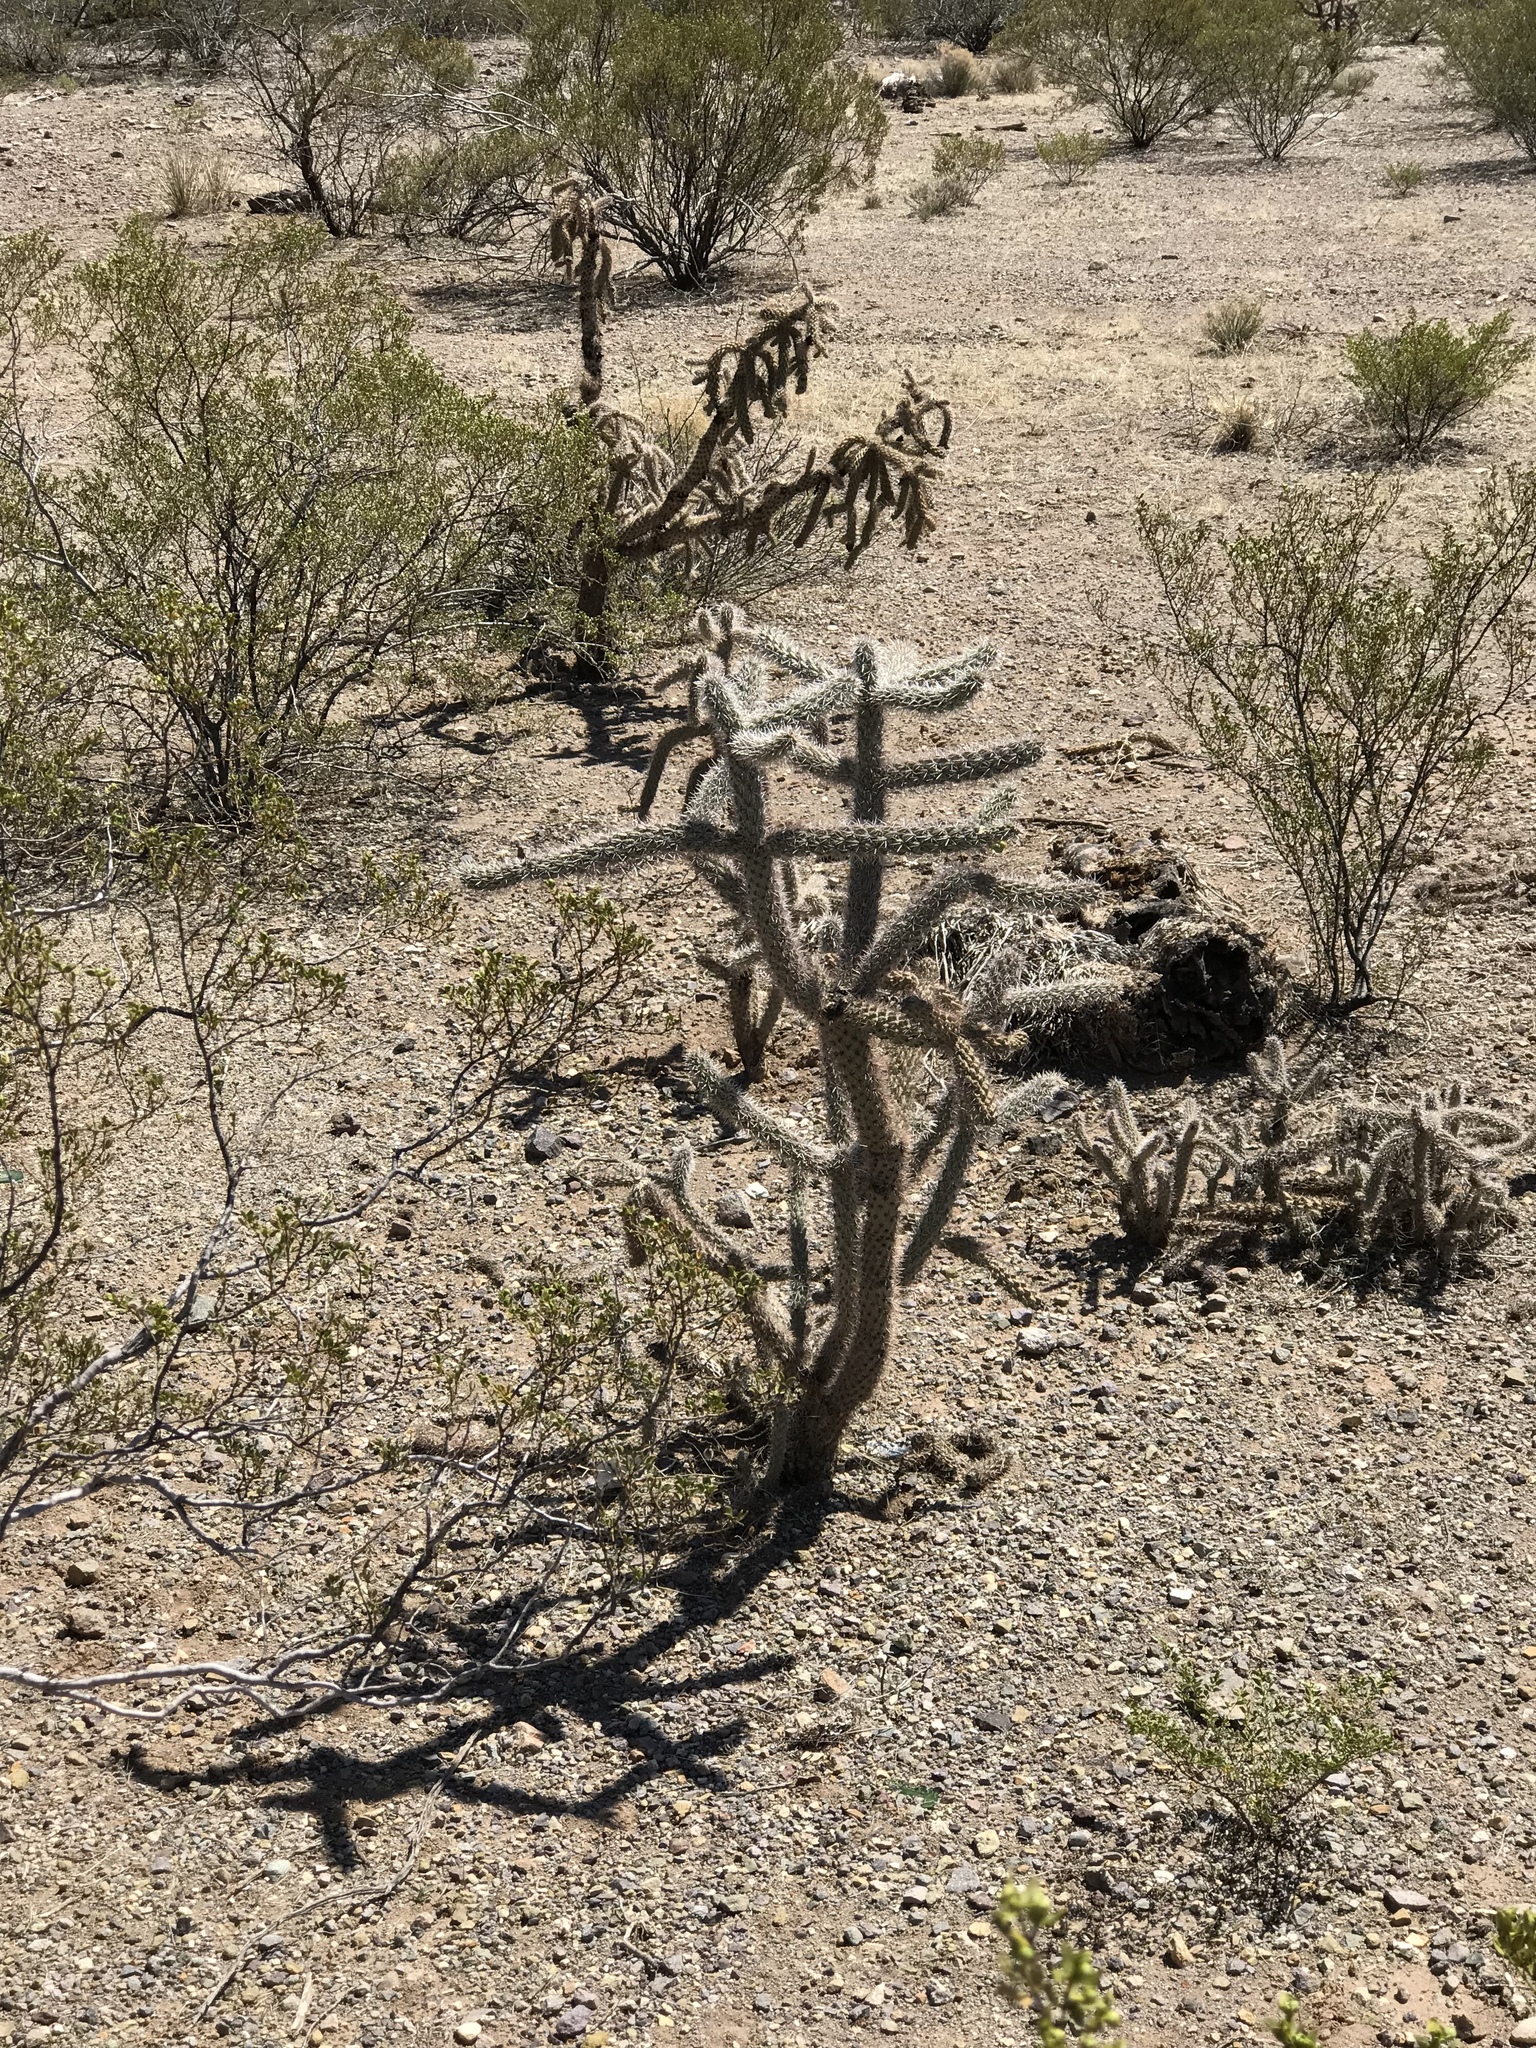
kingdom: Plantae
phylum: Tracheophyta
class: Magnoliopsida
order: Caryophyllales
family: Cactaceae
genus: Cylindropuntia
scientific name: Cylindropuntia imbricata
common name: Candelabrum cactus
